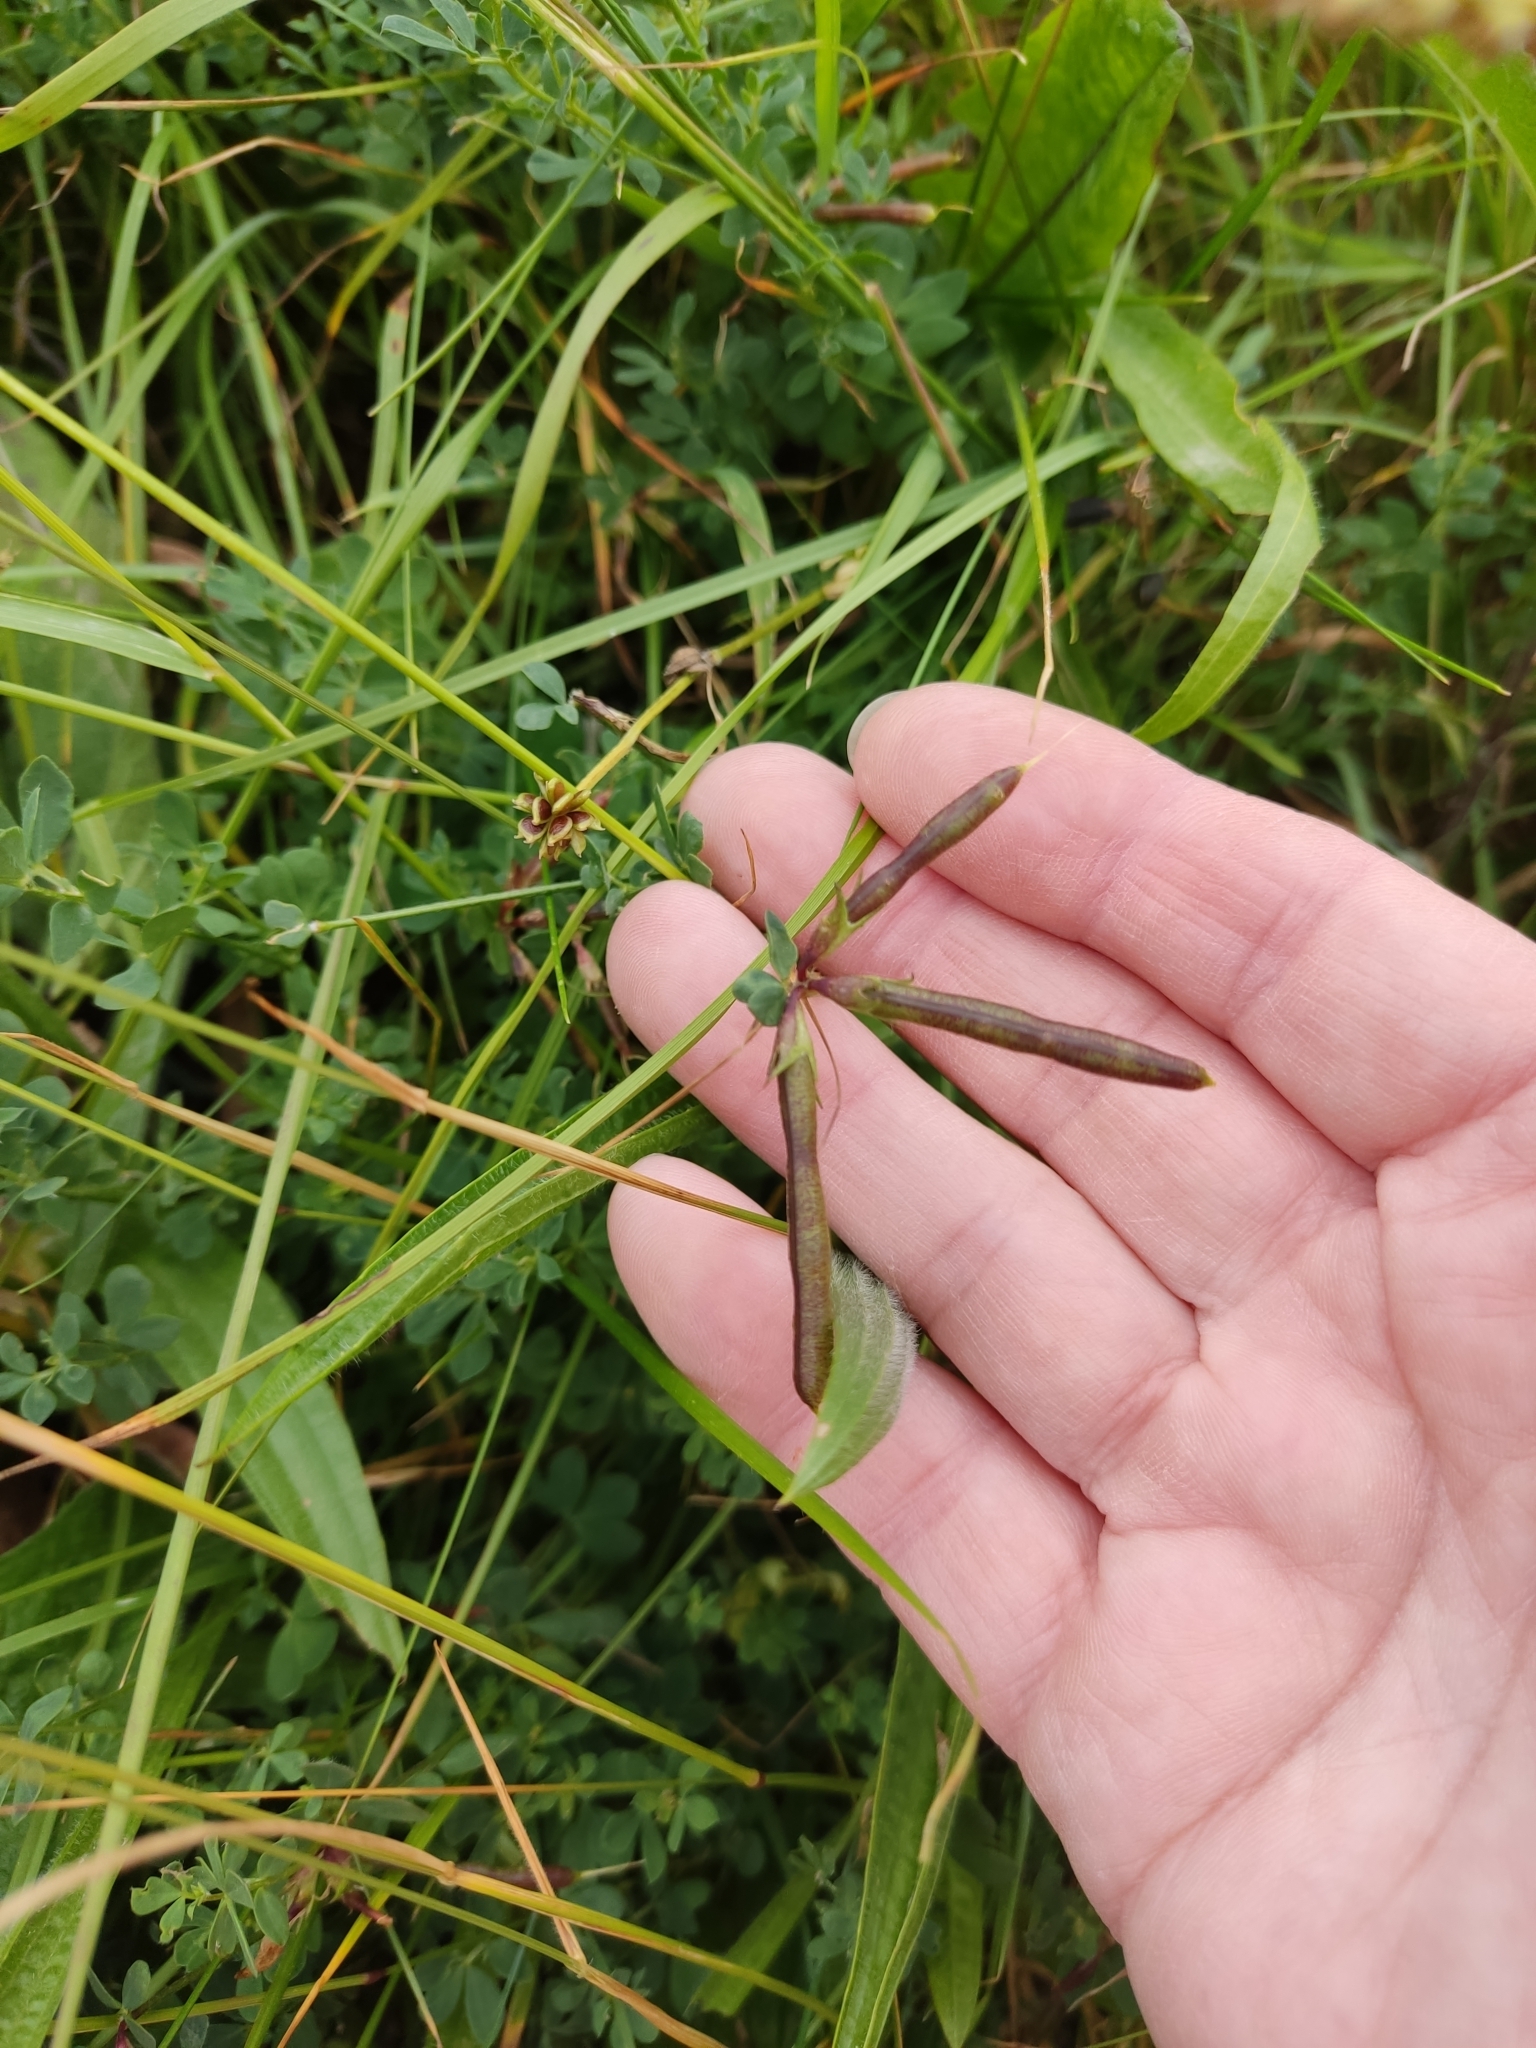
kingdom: Plantae
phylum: Tracheophyta
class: Magnoliopsida
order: Fabales
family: Fabaceae
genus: Lotus
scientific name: Lotus corniculatus
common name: Common bird's-foot-trefoil
